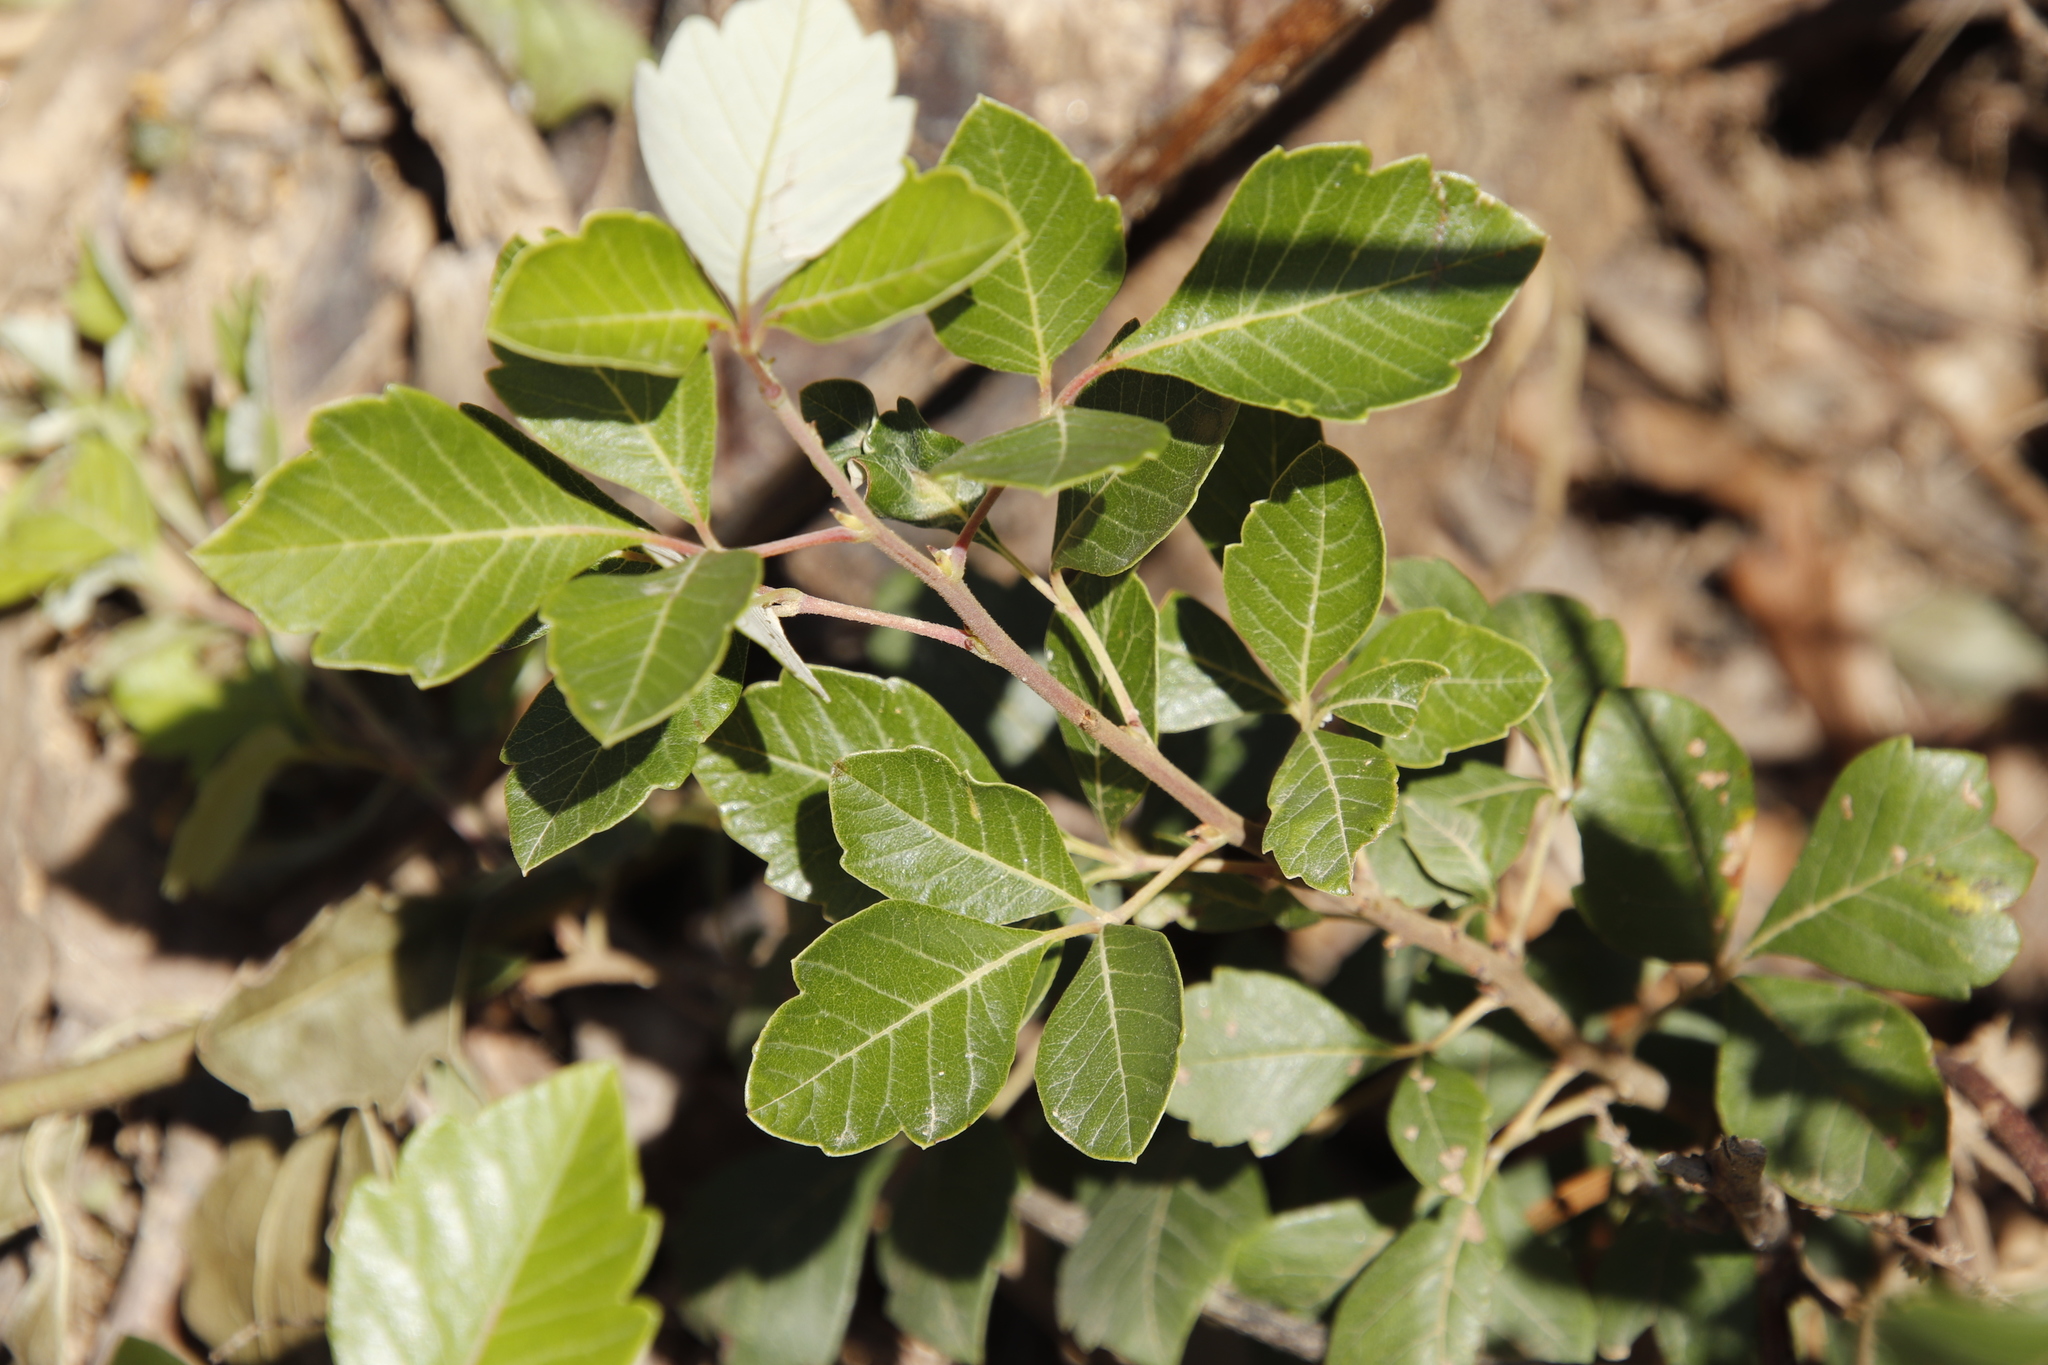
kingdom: Plantae
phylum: Tracheophyta
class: Magnoliopsida
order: Sapindales
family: Anacardiaceae
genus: Searsia
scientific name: Searsia tomentosa
